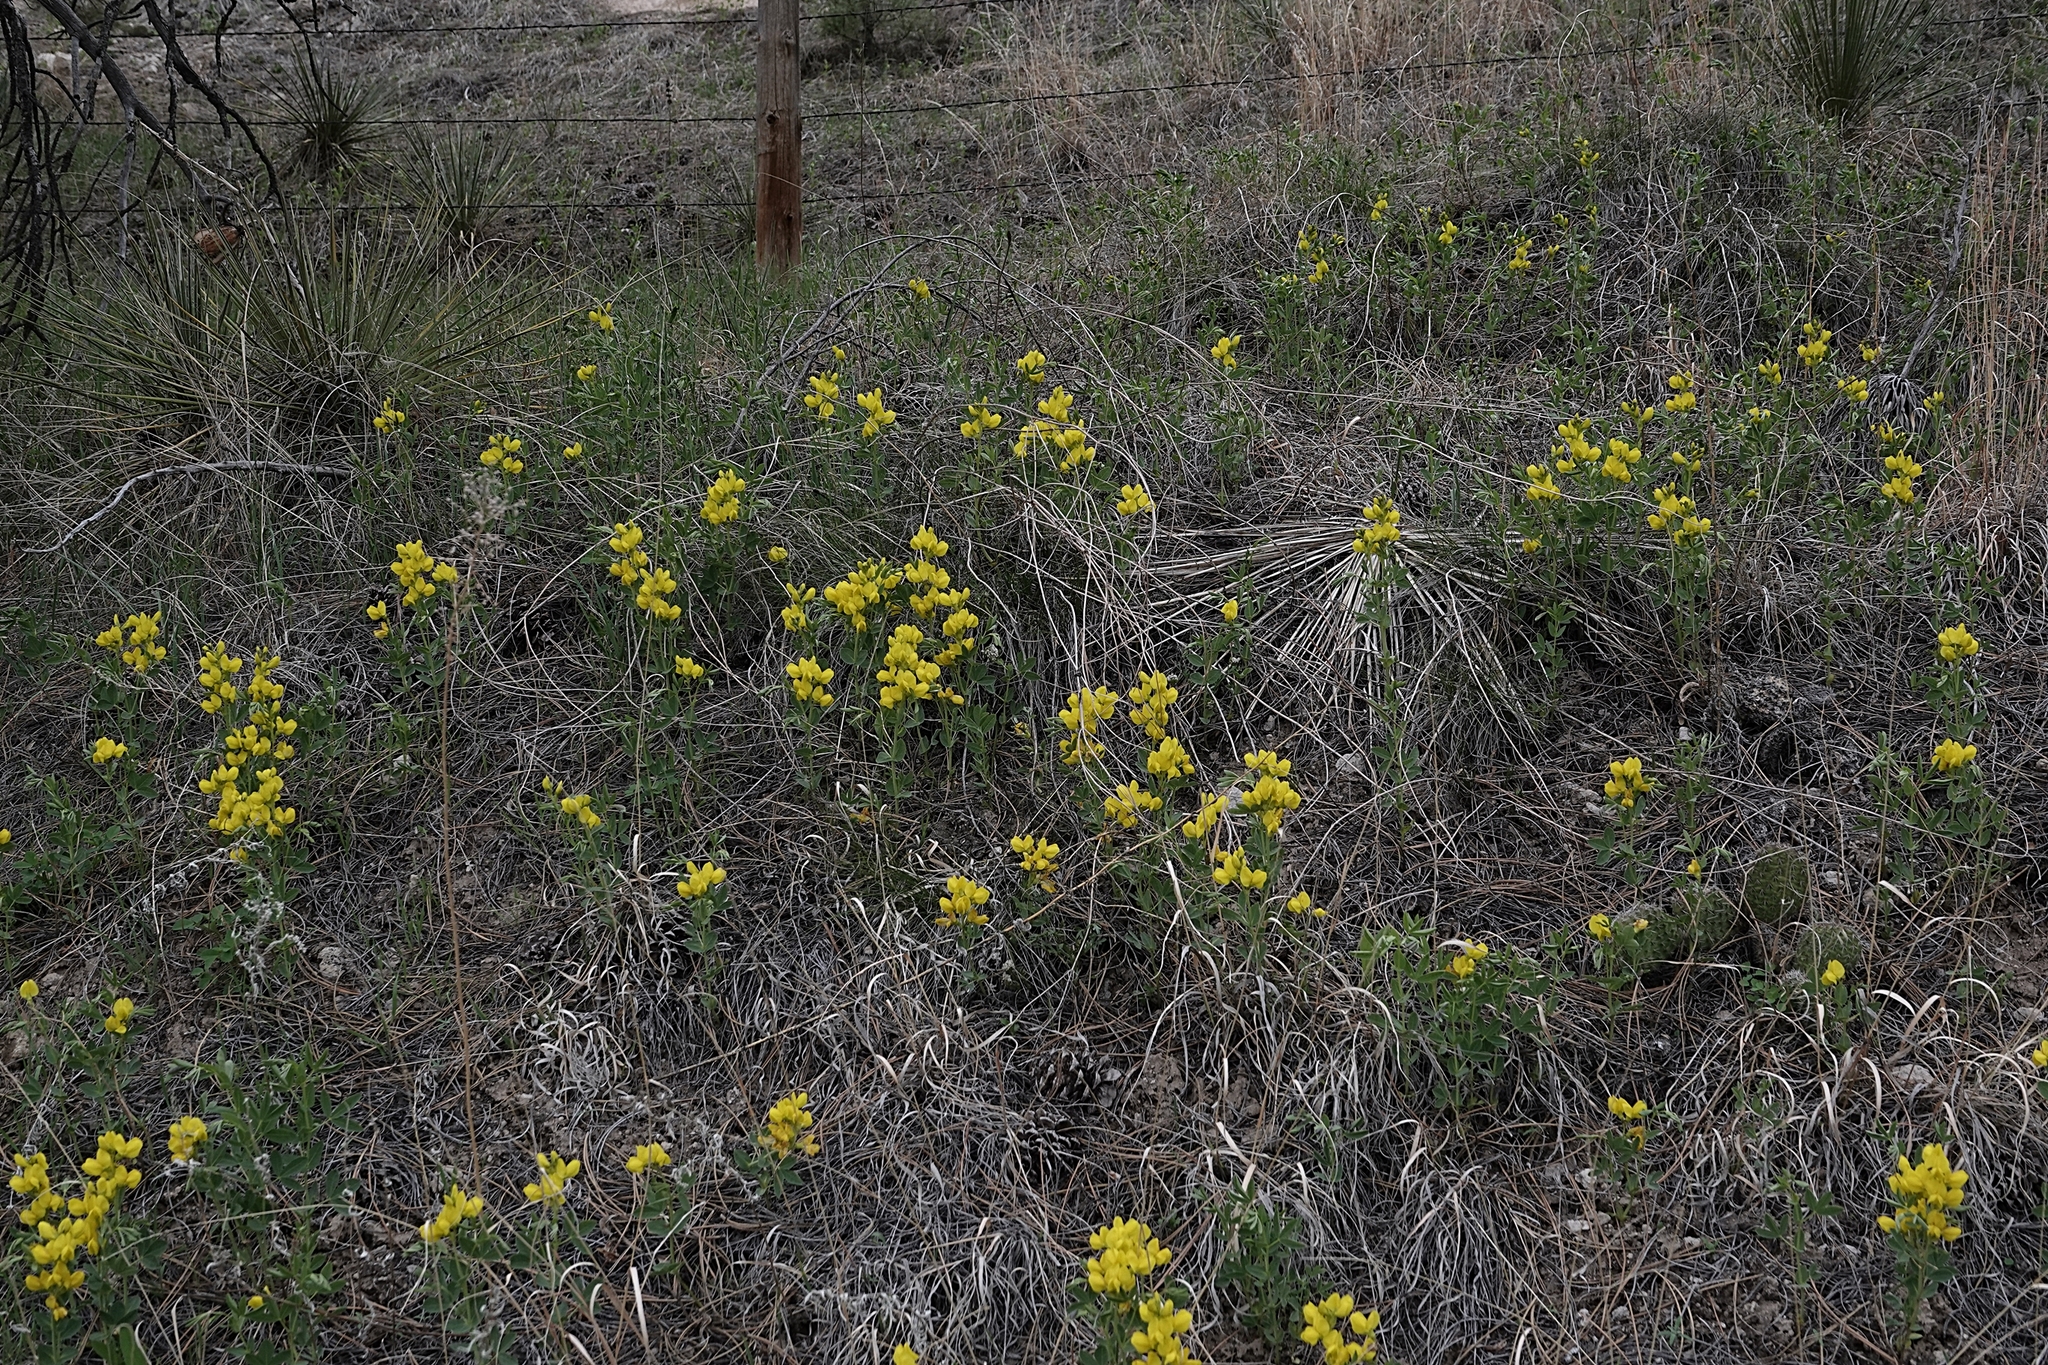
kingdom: Plantae
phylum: Tracheophyta
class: Magnoliopsida
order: Fabales
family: Fabaceae
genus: Thermopsis
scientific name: Thermopsis rhombifolia
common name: Circle-pod-pea
